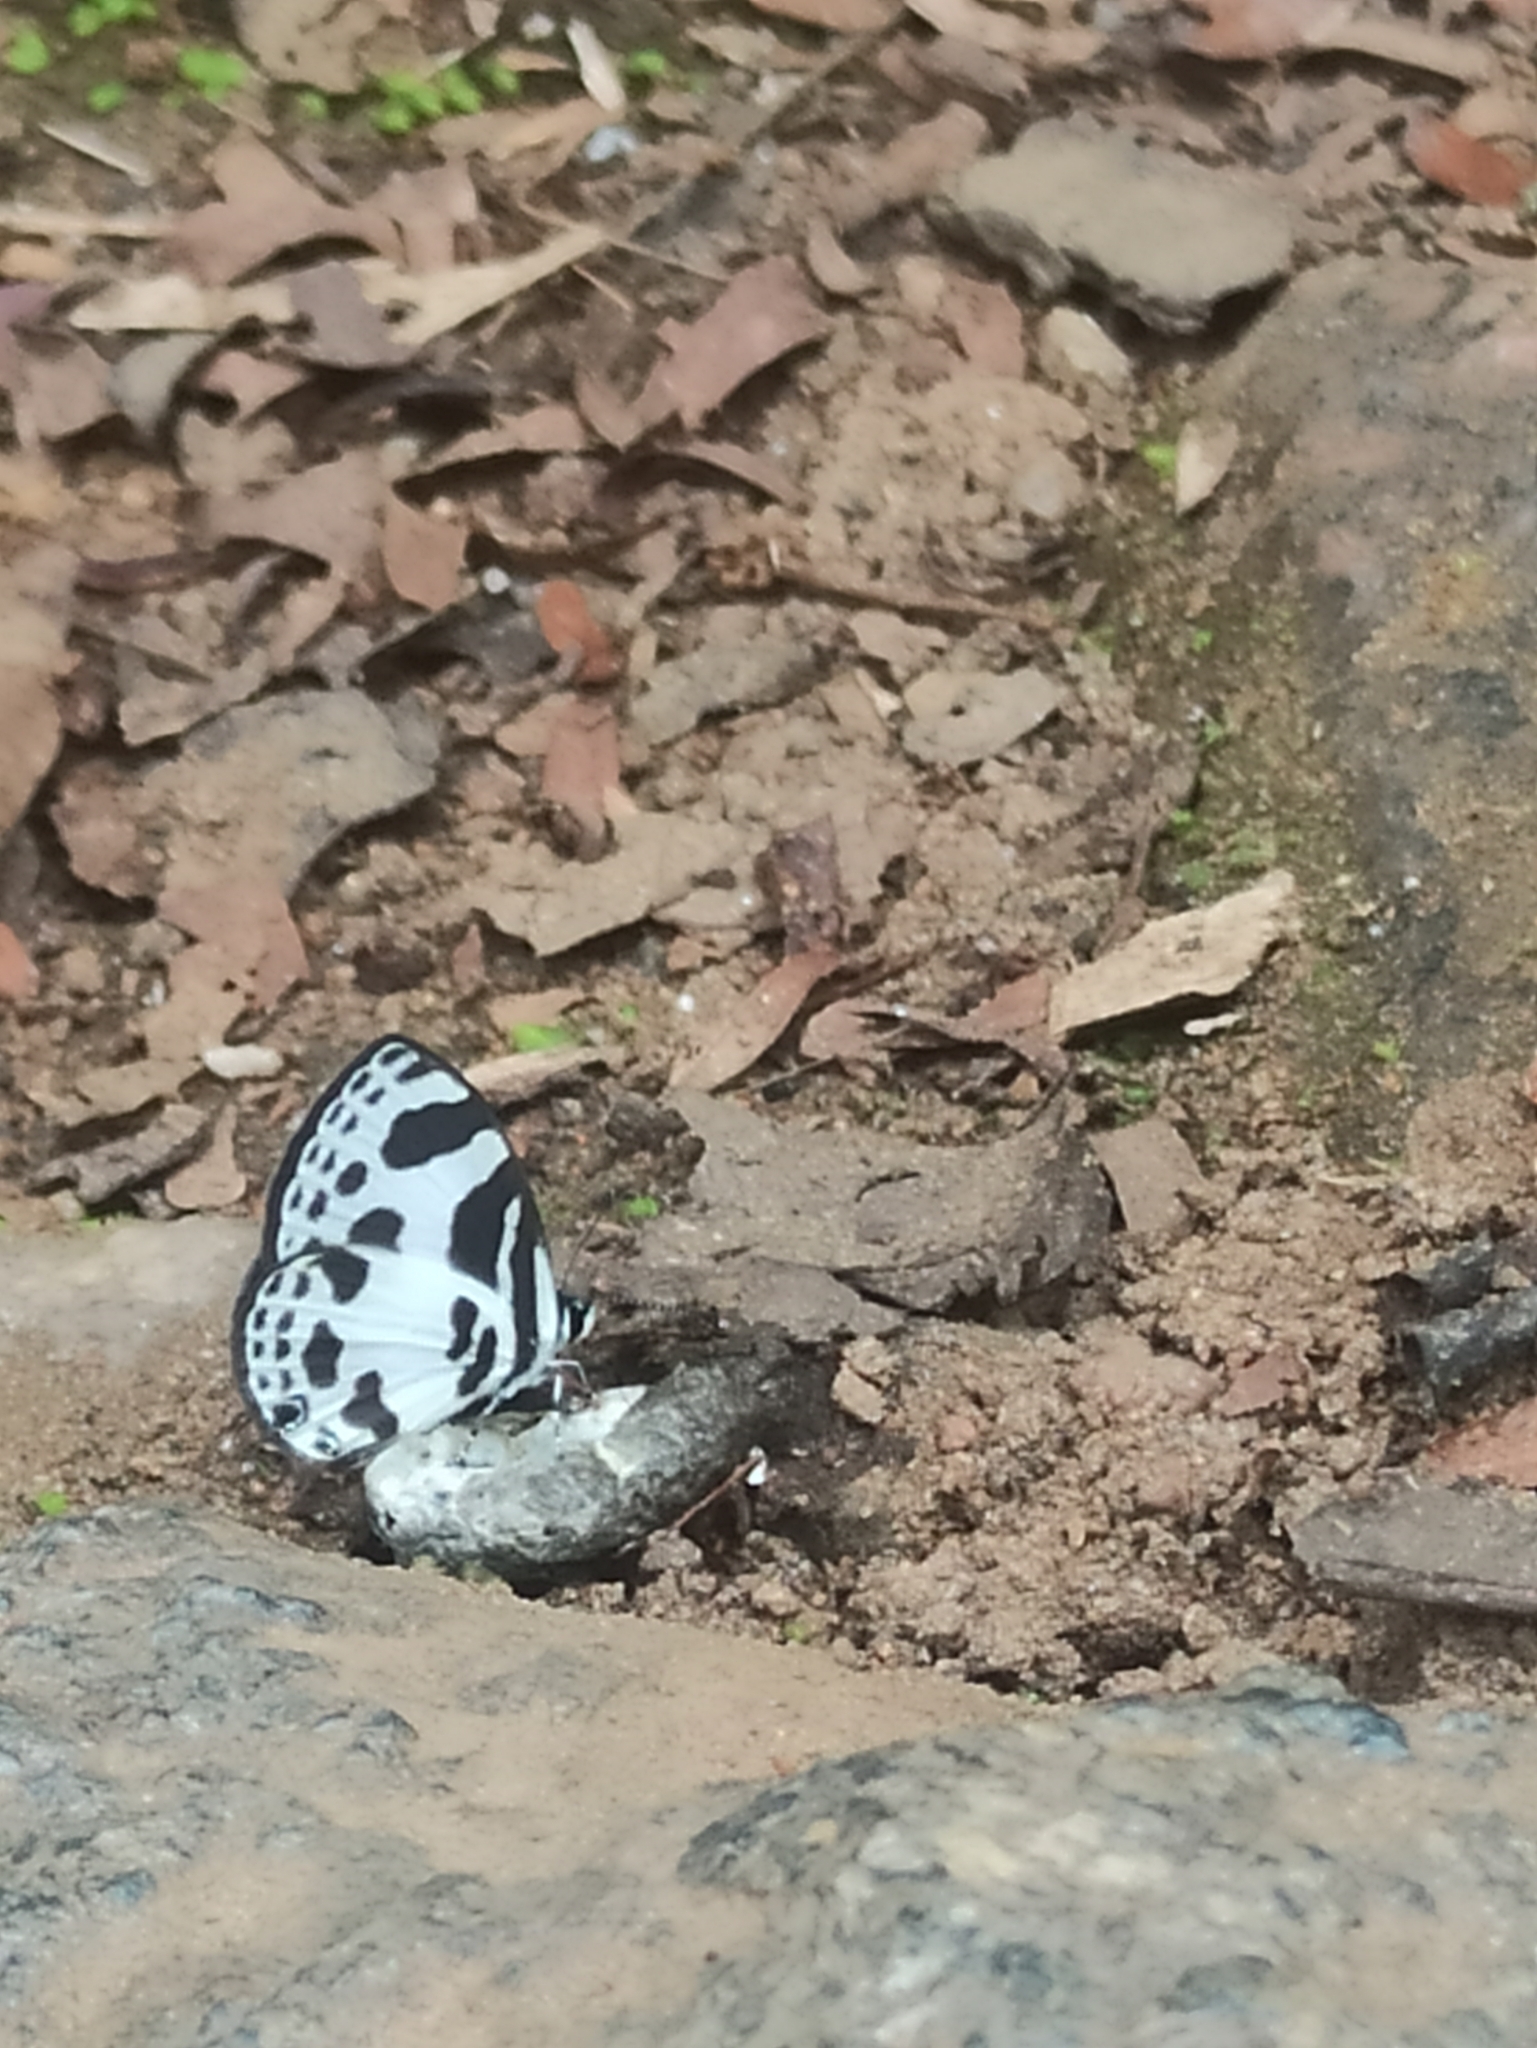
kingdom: Animalia
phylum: Arthropoda
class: Insecta
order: Lepidoptera
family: Lycaenidae
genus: Discolampa
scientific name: Discolampa ethion
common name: Banded blue pierrot
